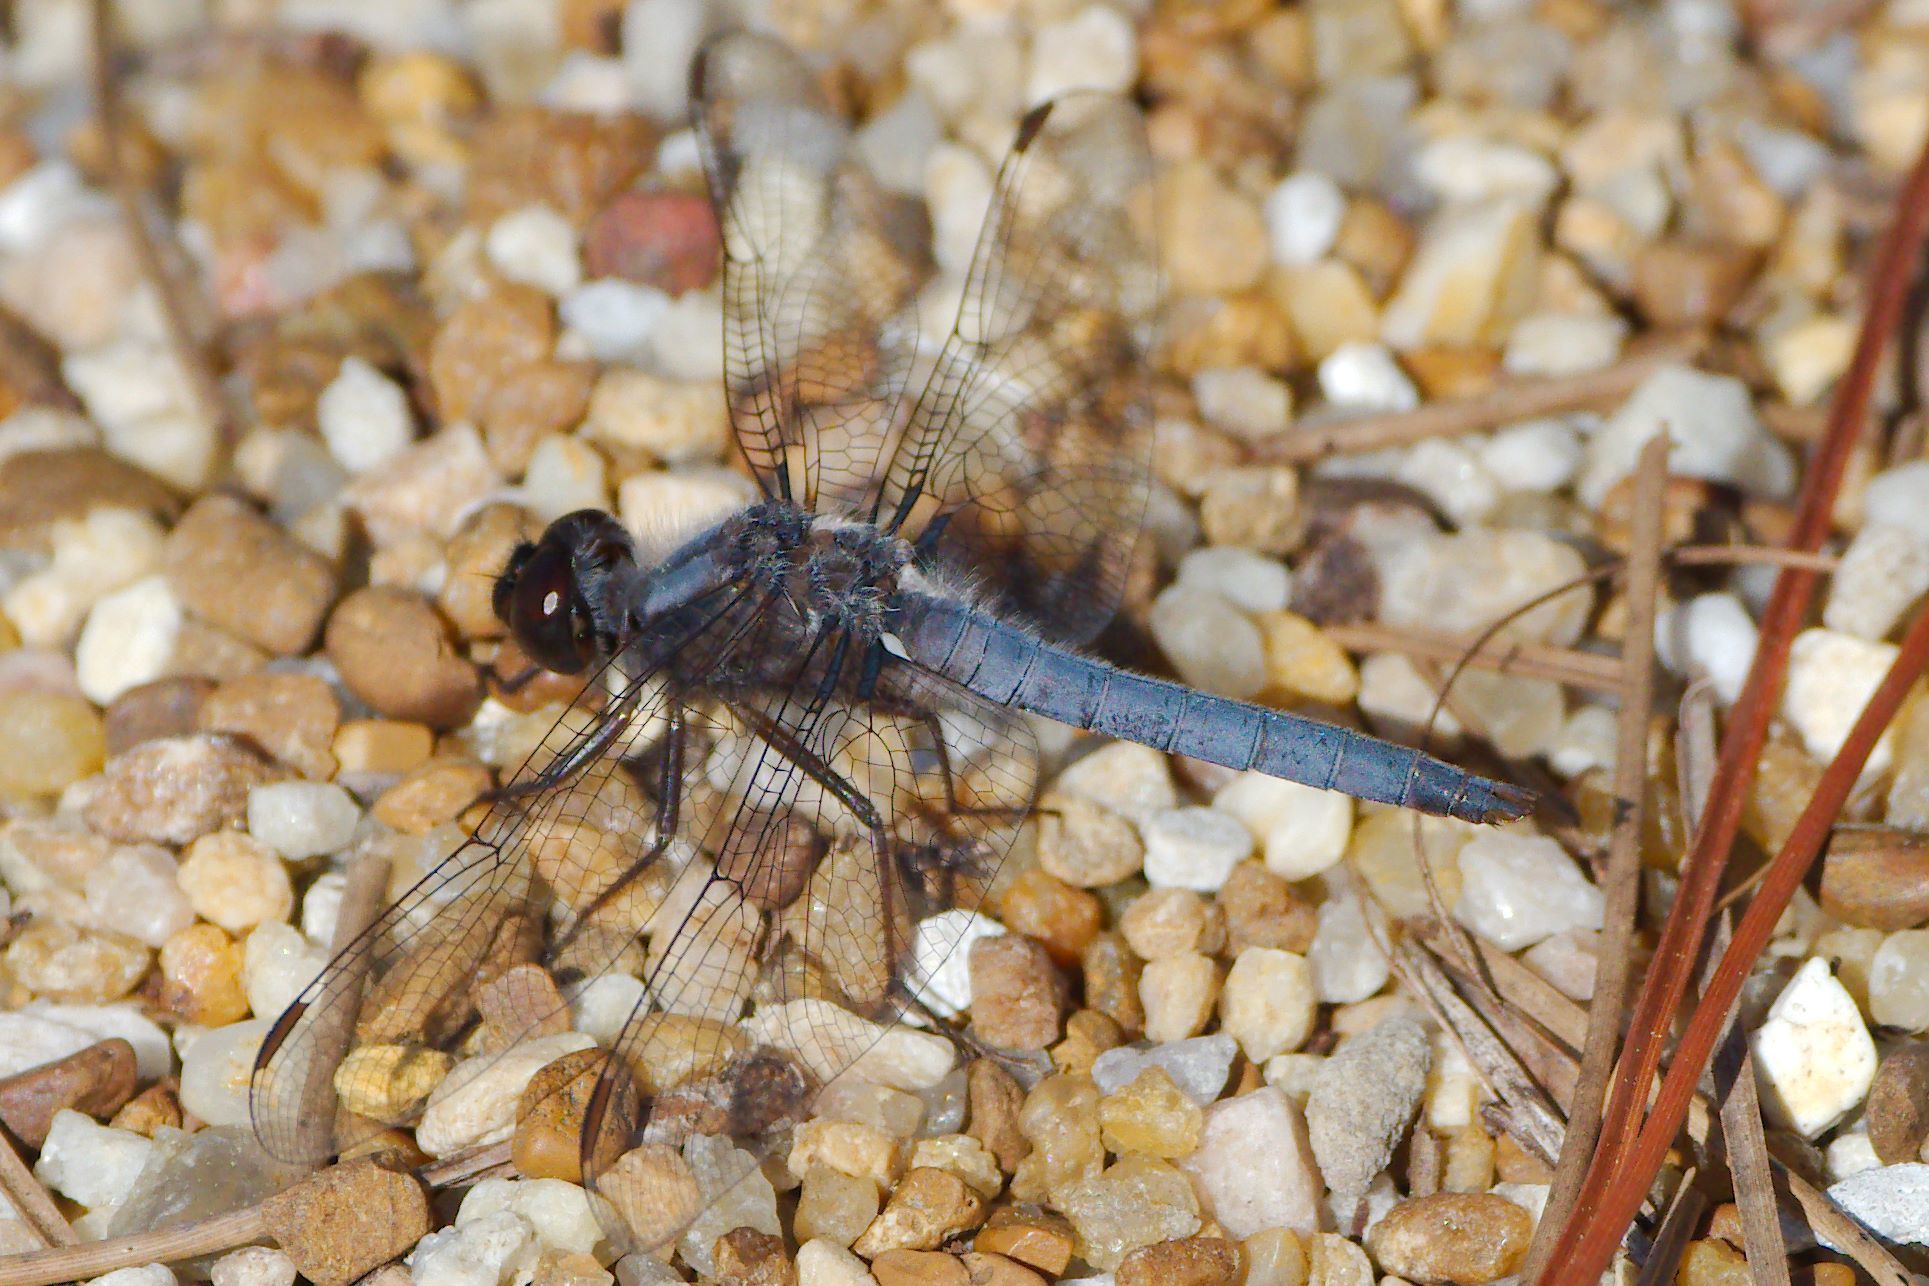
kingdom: Animalia
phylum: Arthropoda
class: Insecta
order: Odonata
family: Libellulidae
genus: Ladona
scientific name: Ladona deplanata
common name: Blue corporal
